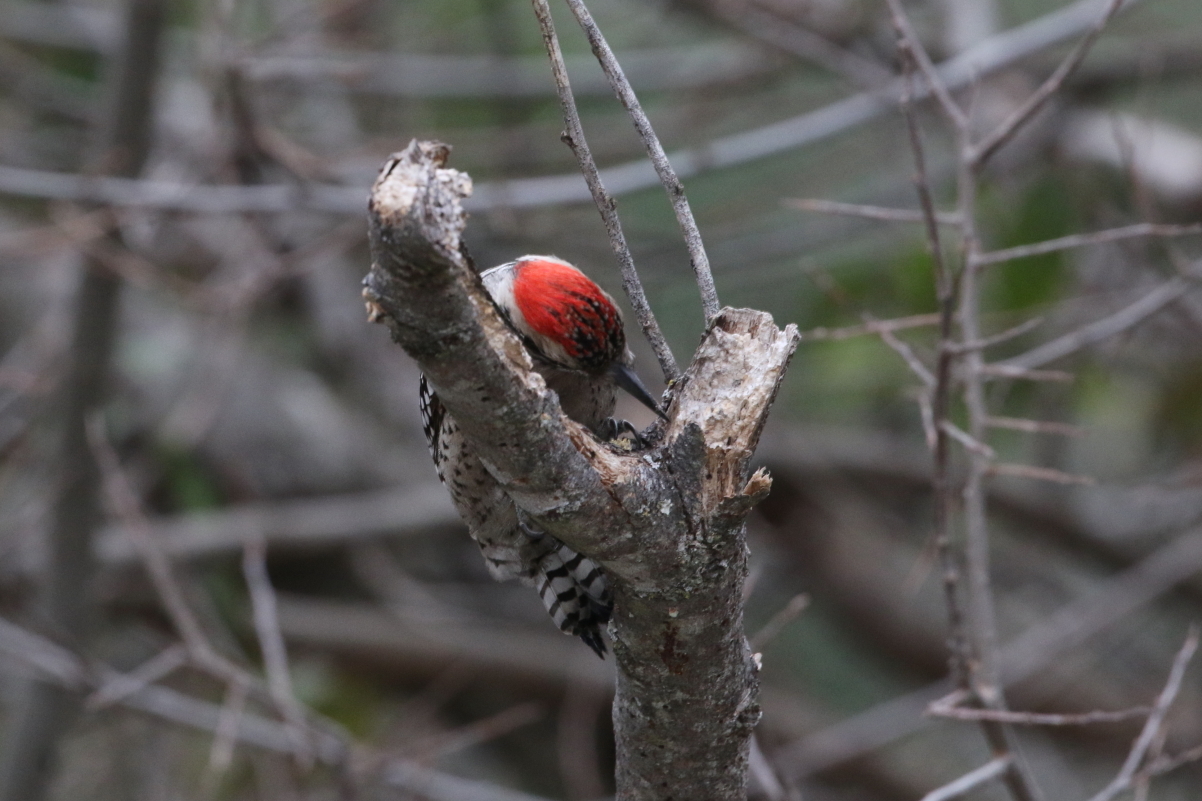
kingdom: Animalia
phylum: Chordata
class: Aves
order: Piciformes
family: Picidae
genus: Dryobates
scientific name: Dryobates scalaris
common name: Ladder-backed woodpecker
